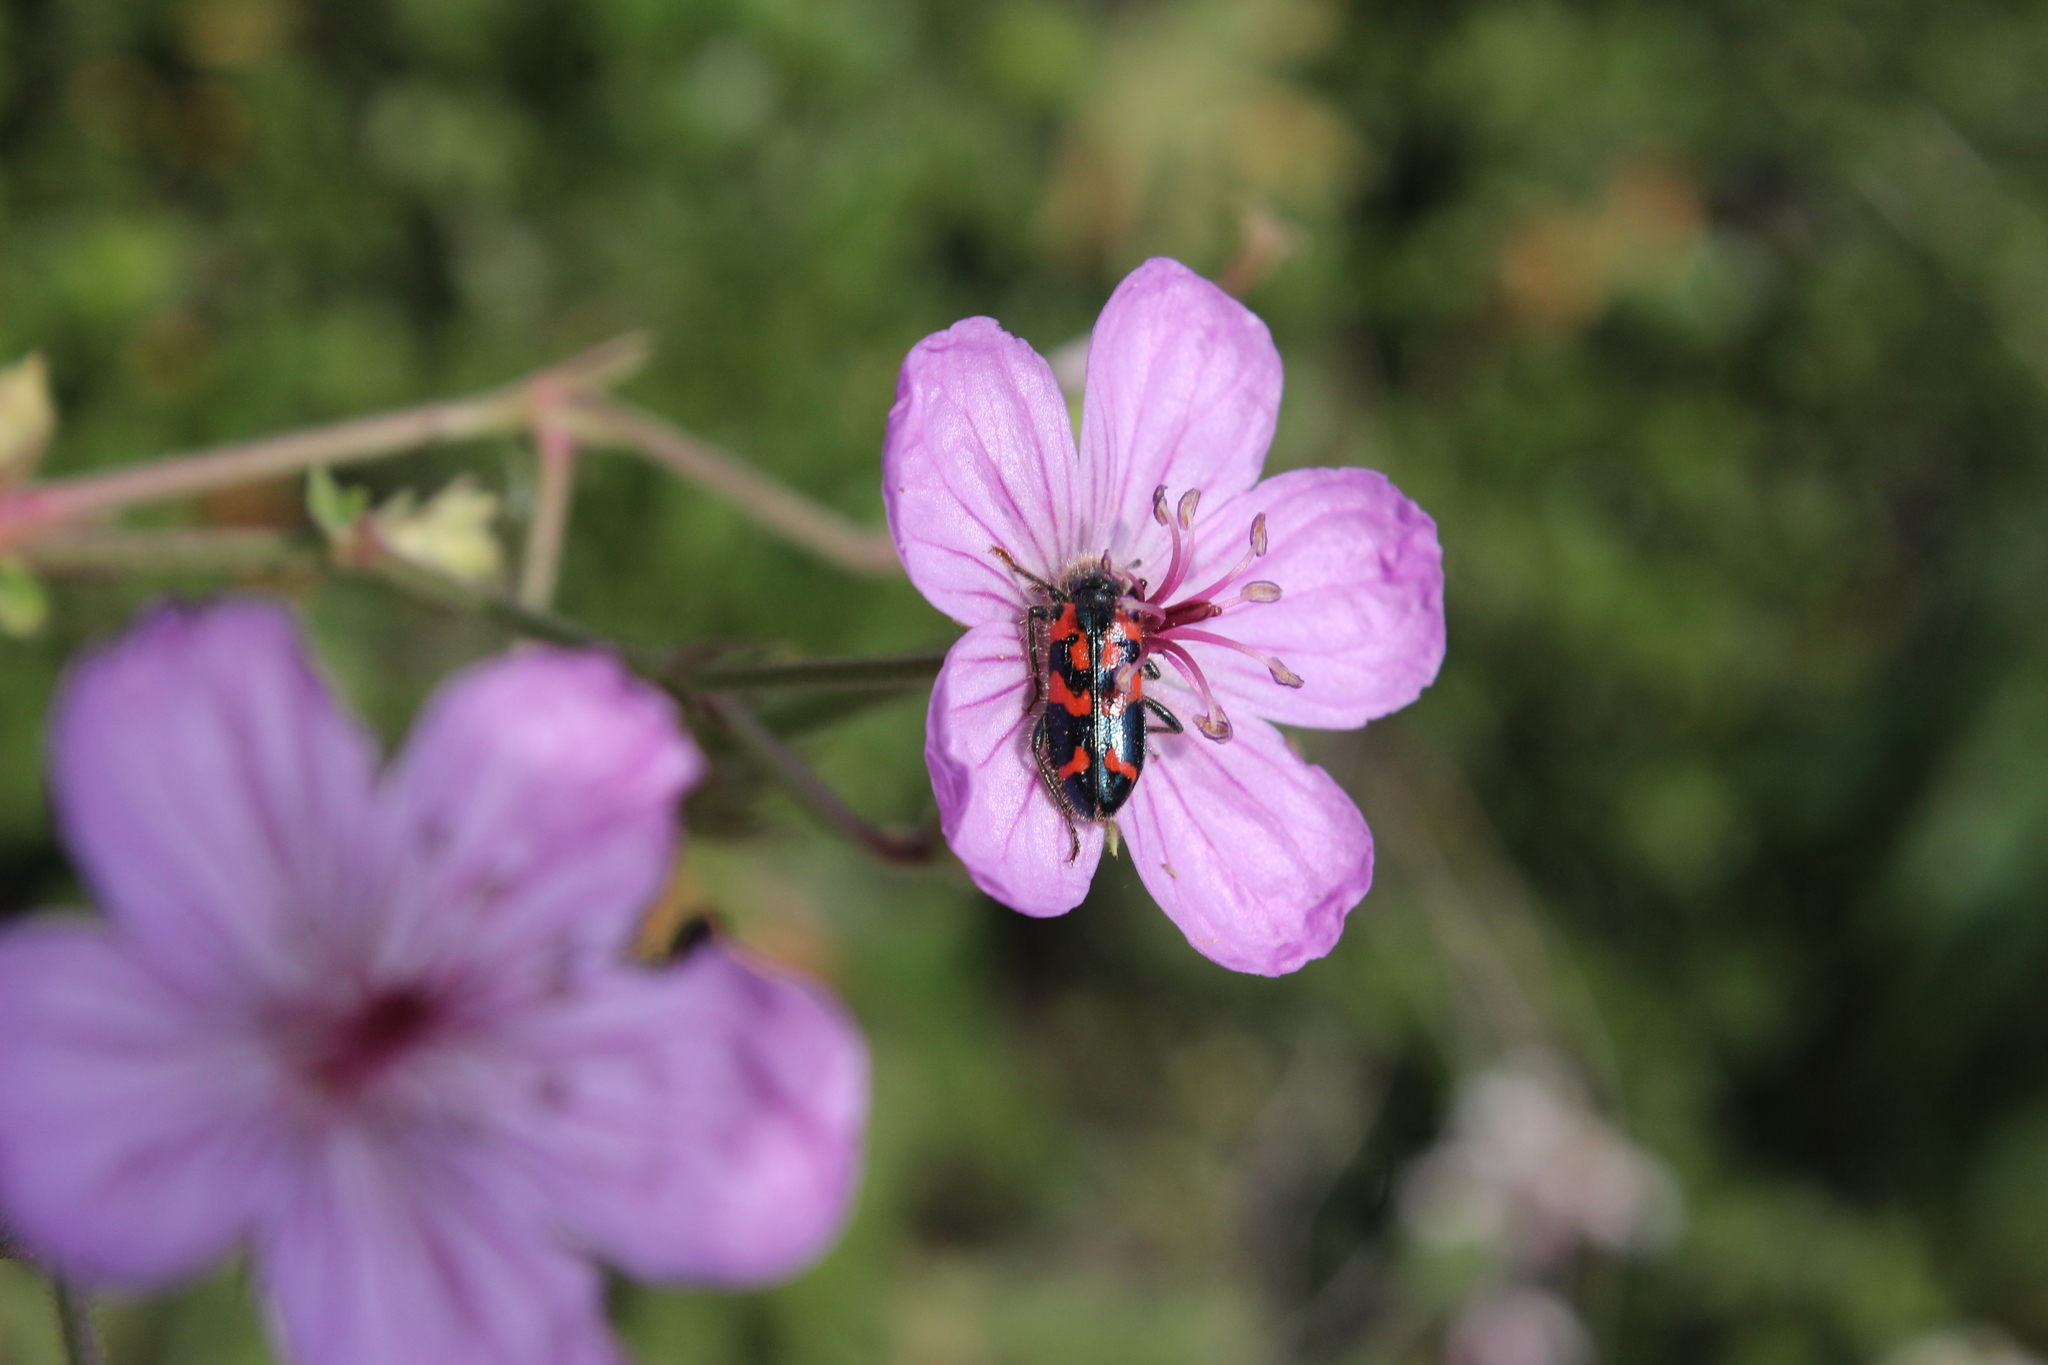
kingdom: Animalia
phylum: Arthropoda
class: Insecta
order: Coleoptera
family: Cleridae
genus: Trichodes
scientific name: Trichodes ornatus
